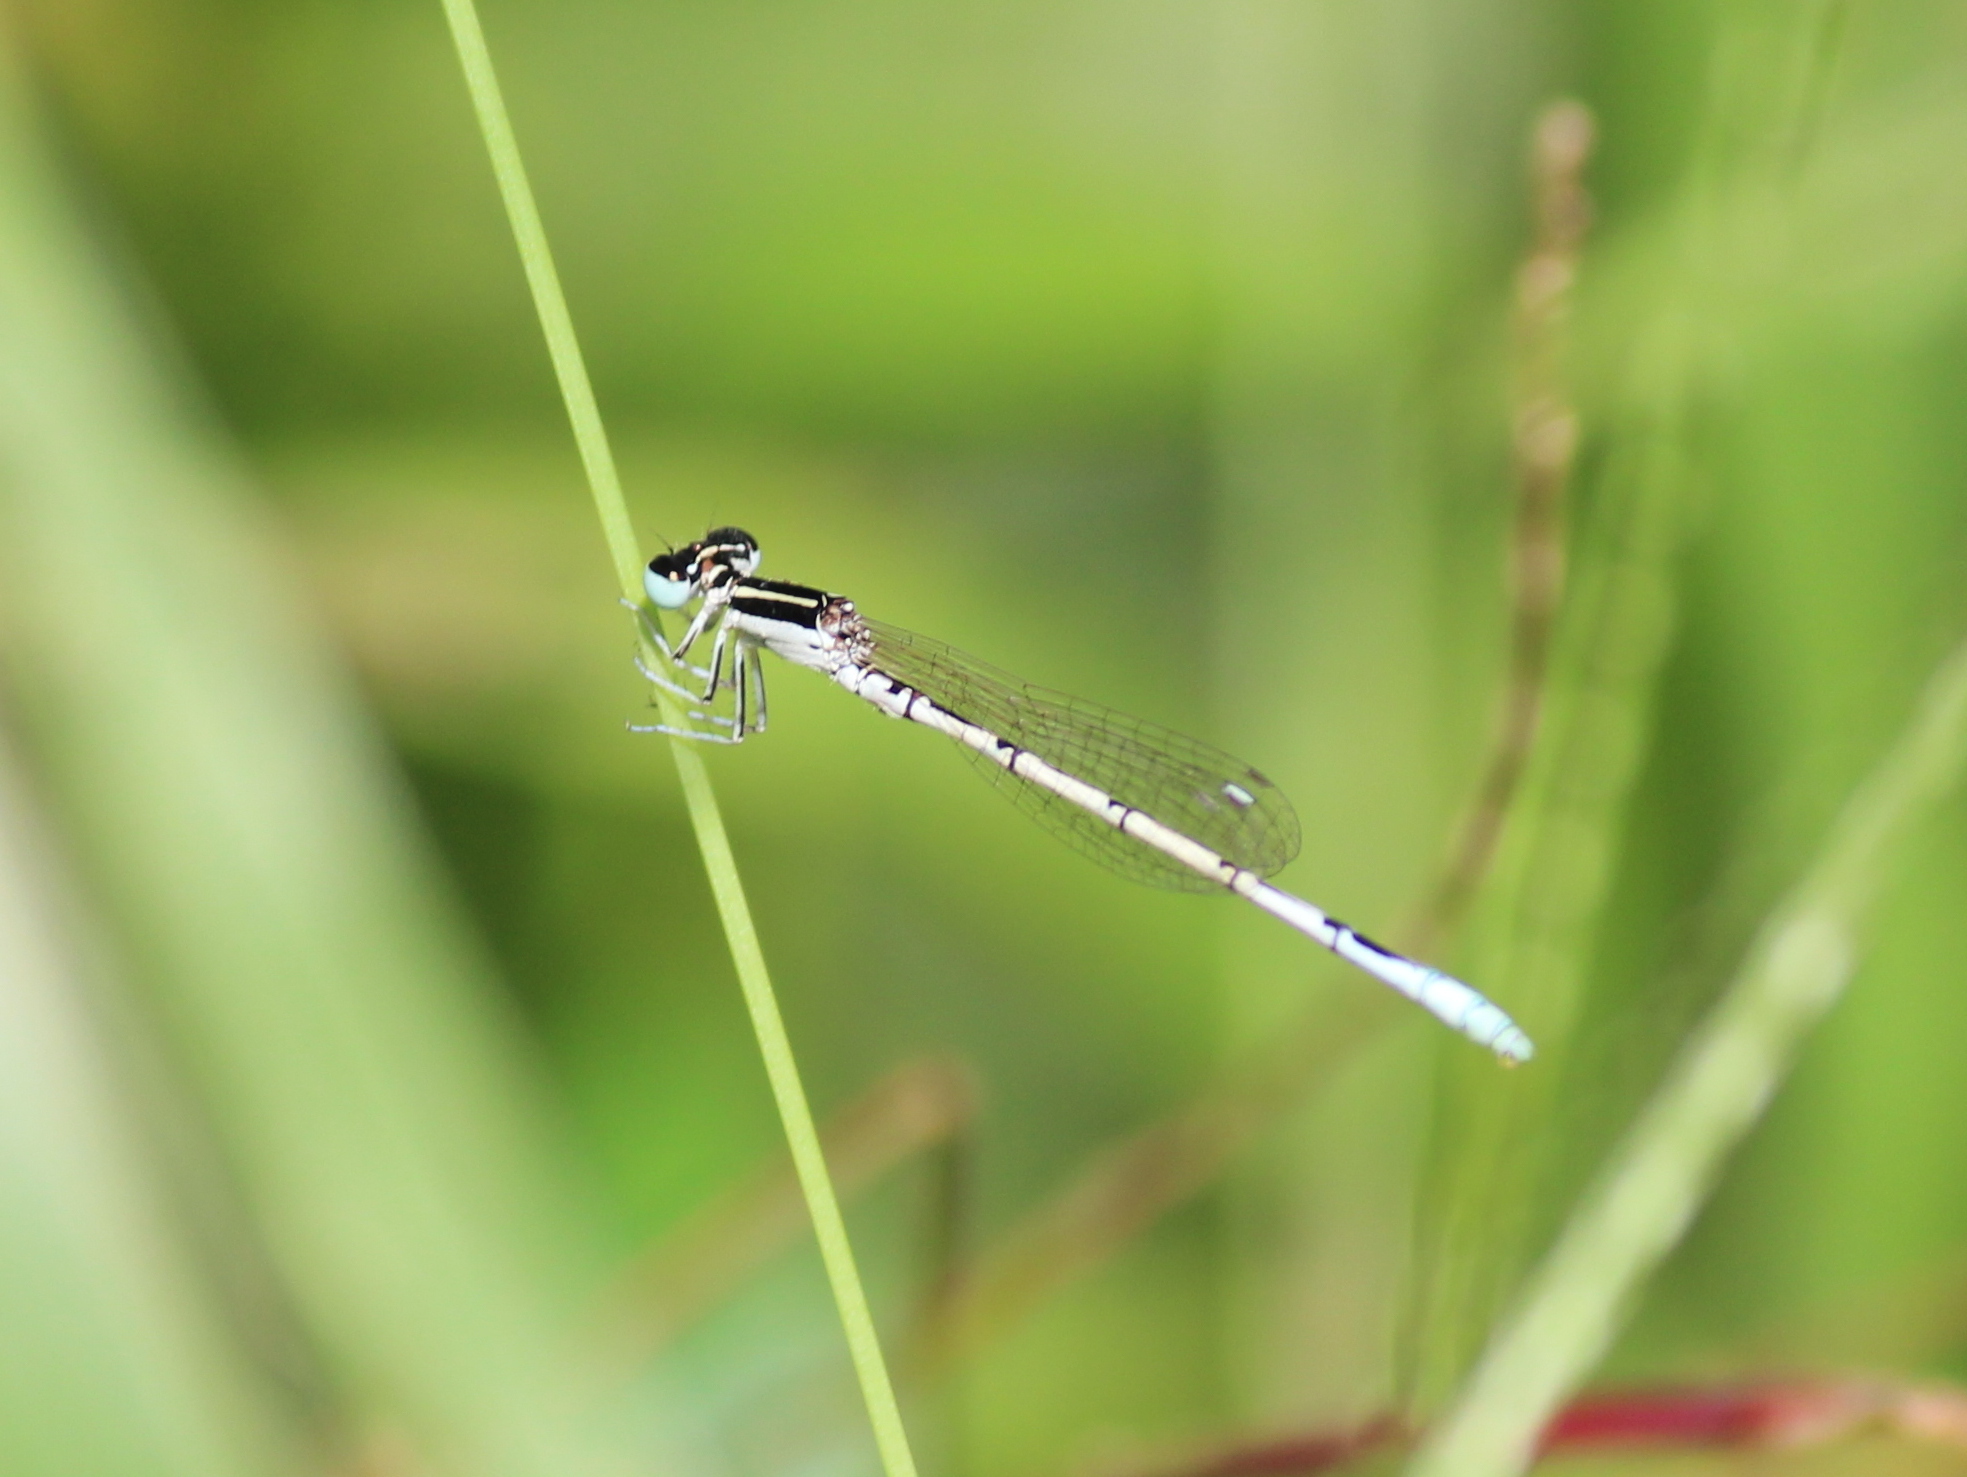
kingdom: Animalia
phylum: Arthropoda
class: Insecta
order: Odonata
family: Coenagrionidae
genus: Agriocnemis
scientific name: Agriocnemis pieris
